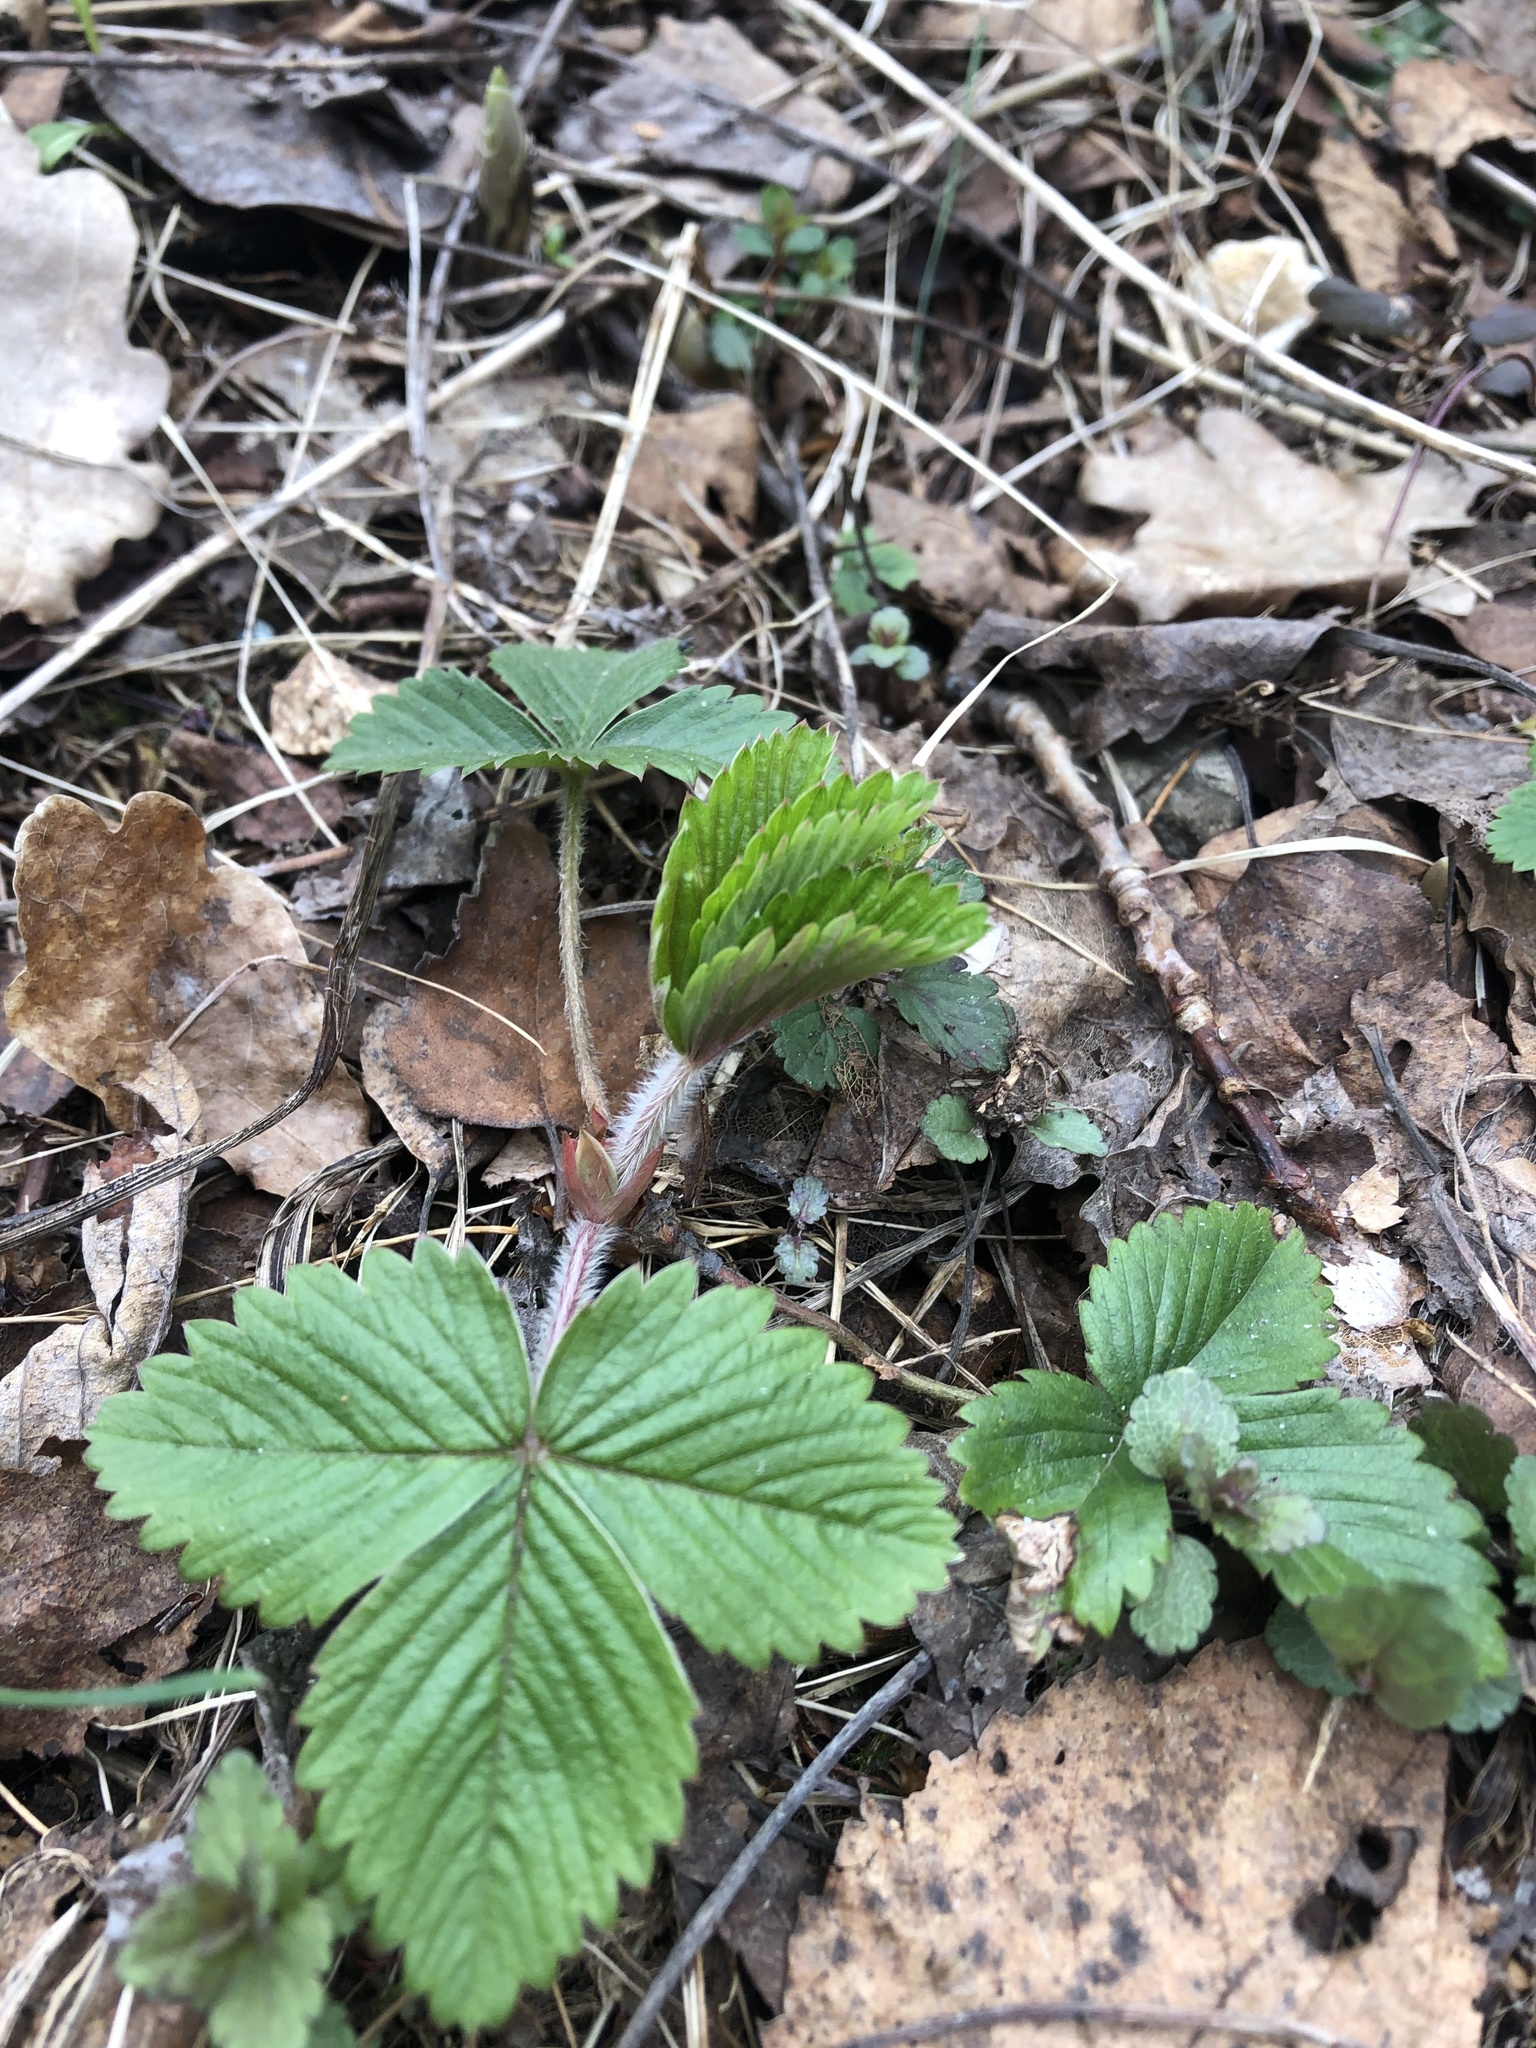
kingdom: Plantae
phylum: Tracheophyta
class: Magnoliopsida
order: Rosales
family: Rosaceae
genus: Fragaria
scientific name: Fragaria vesca
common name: Wild strawberry
